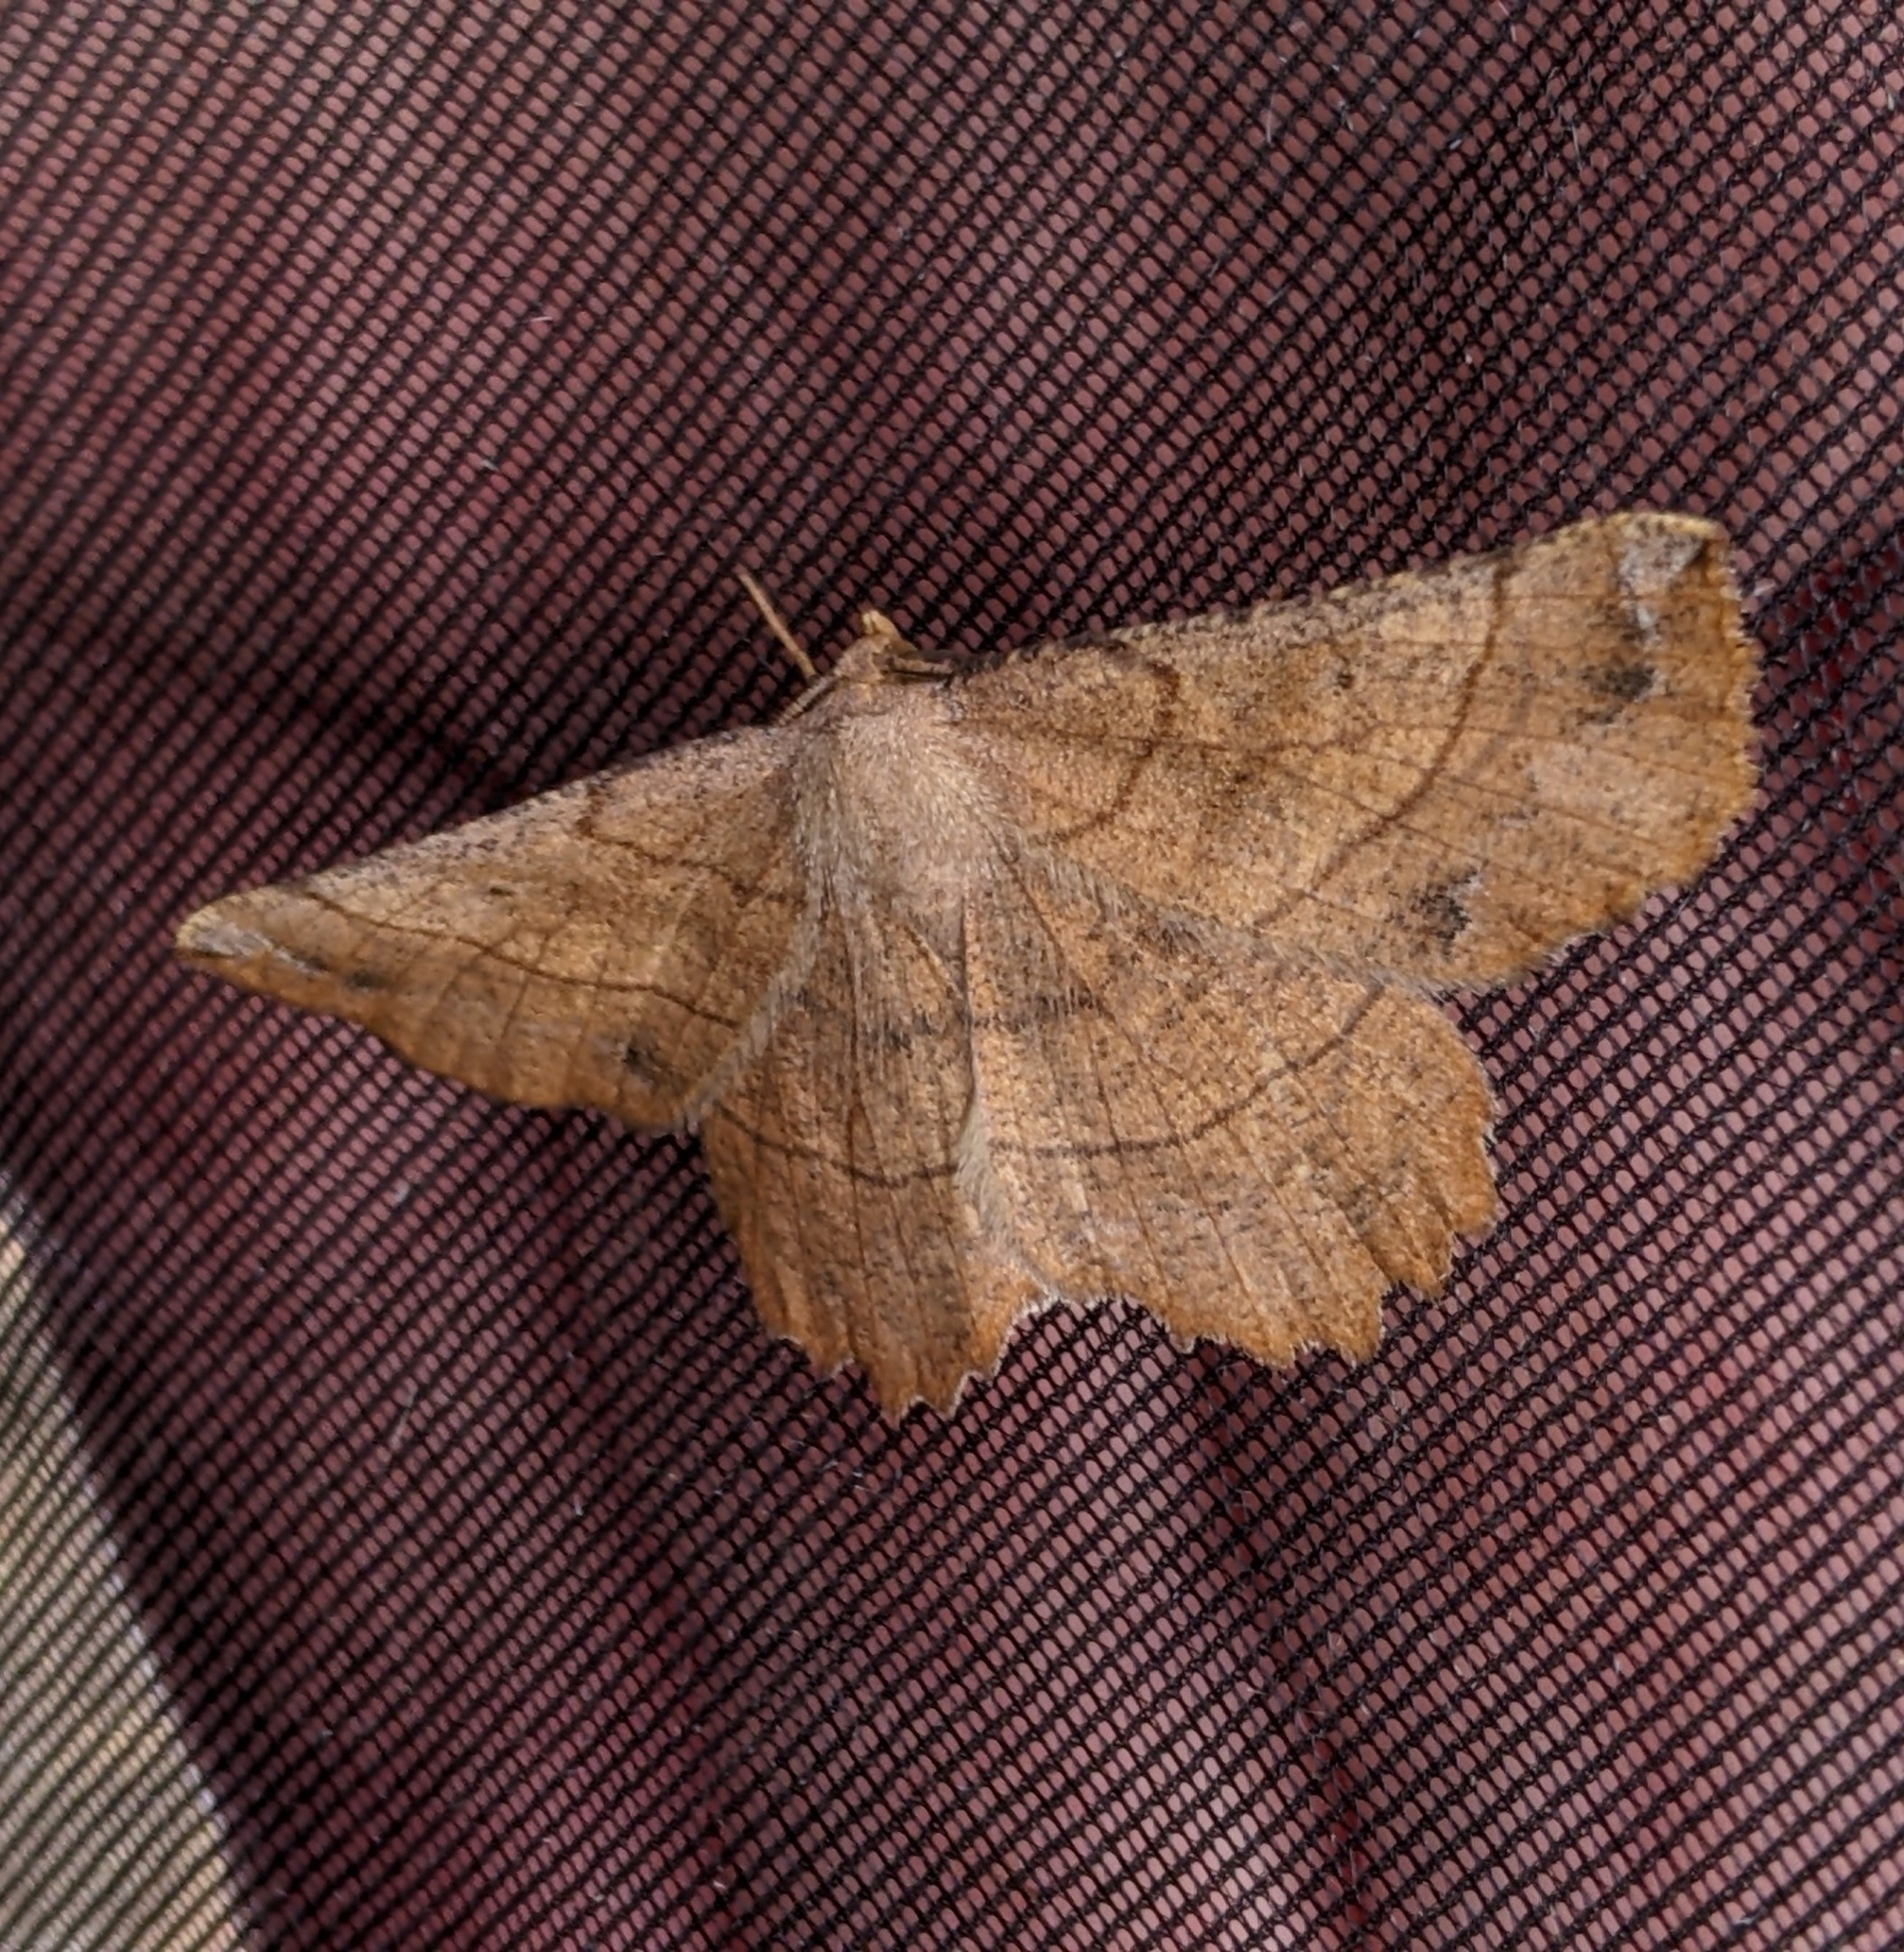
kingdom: Animalia
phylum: Arthropoda
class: Insecta
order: Lepidoptera
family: Geometridae
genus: Euchlaena
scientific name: Euchlaena mollisaria
